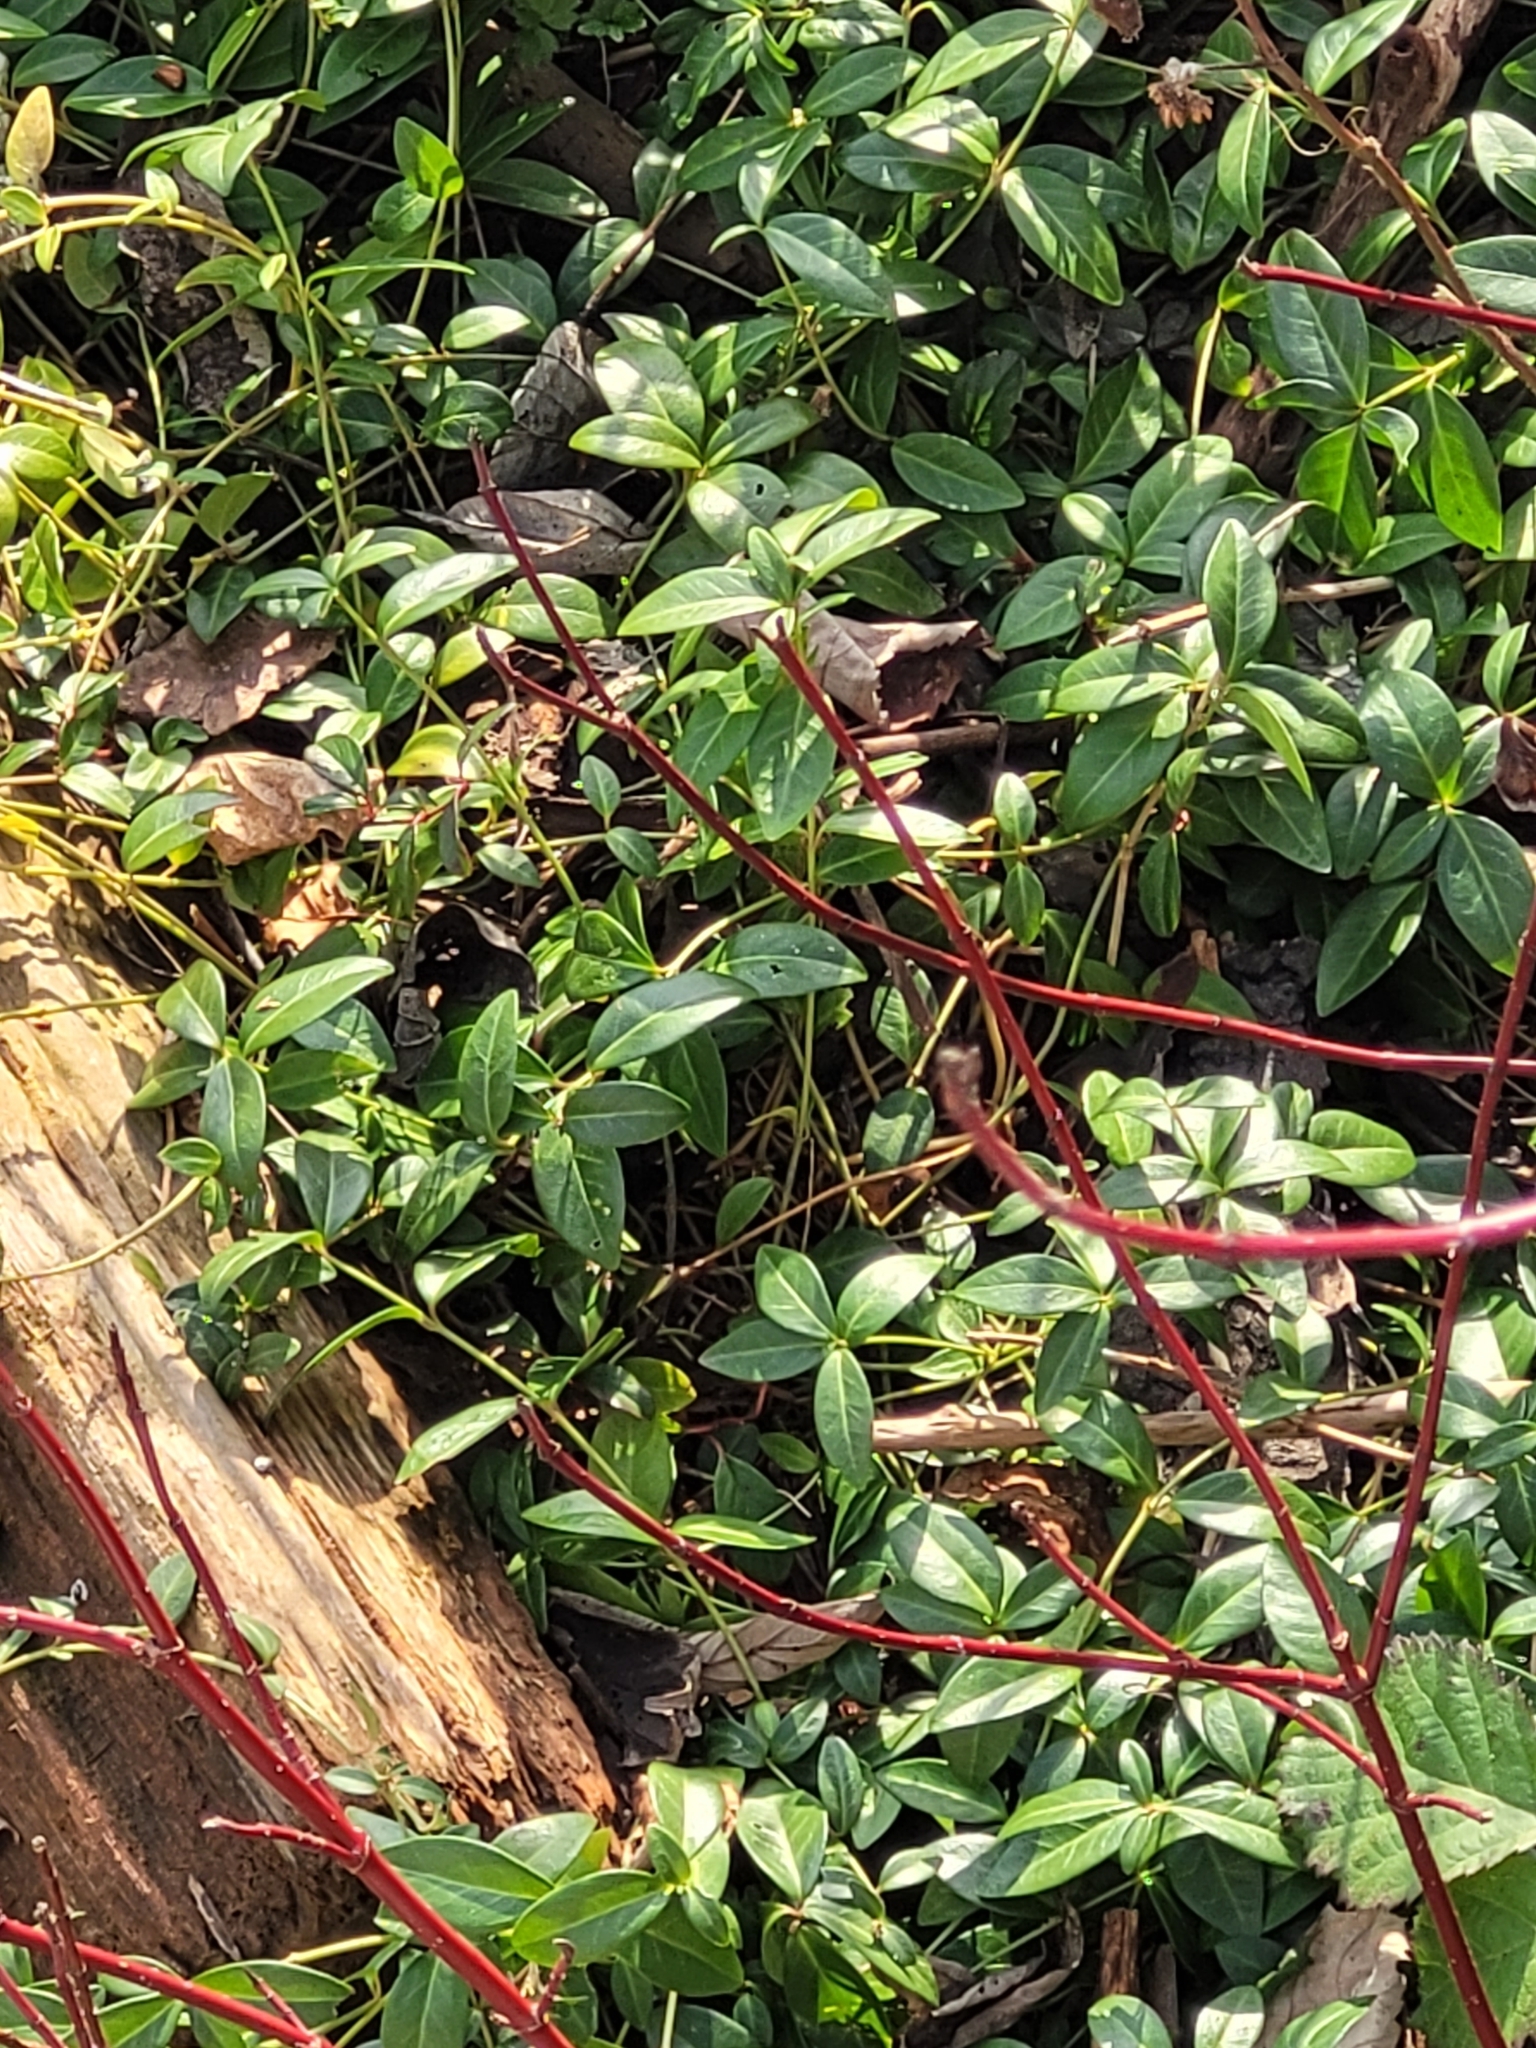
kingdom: Plantae
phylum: Tracheophyta
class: Magnoliopsida
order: Gentianales
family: Apocynaceae
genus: Vinca
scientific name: Vinca minor
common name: Lesser periwinkle
